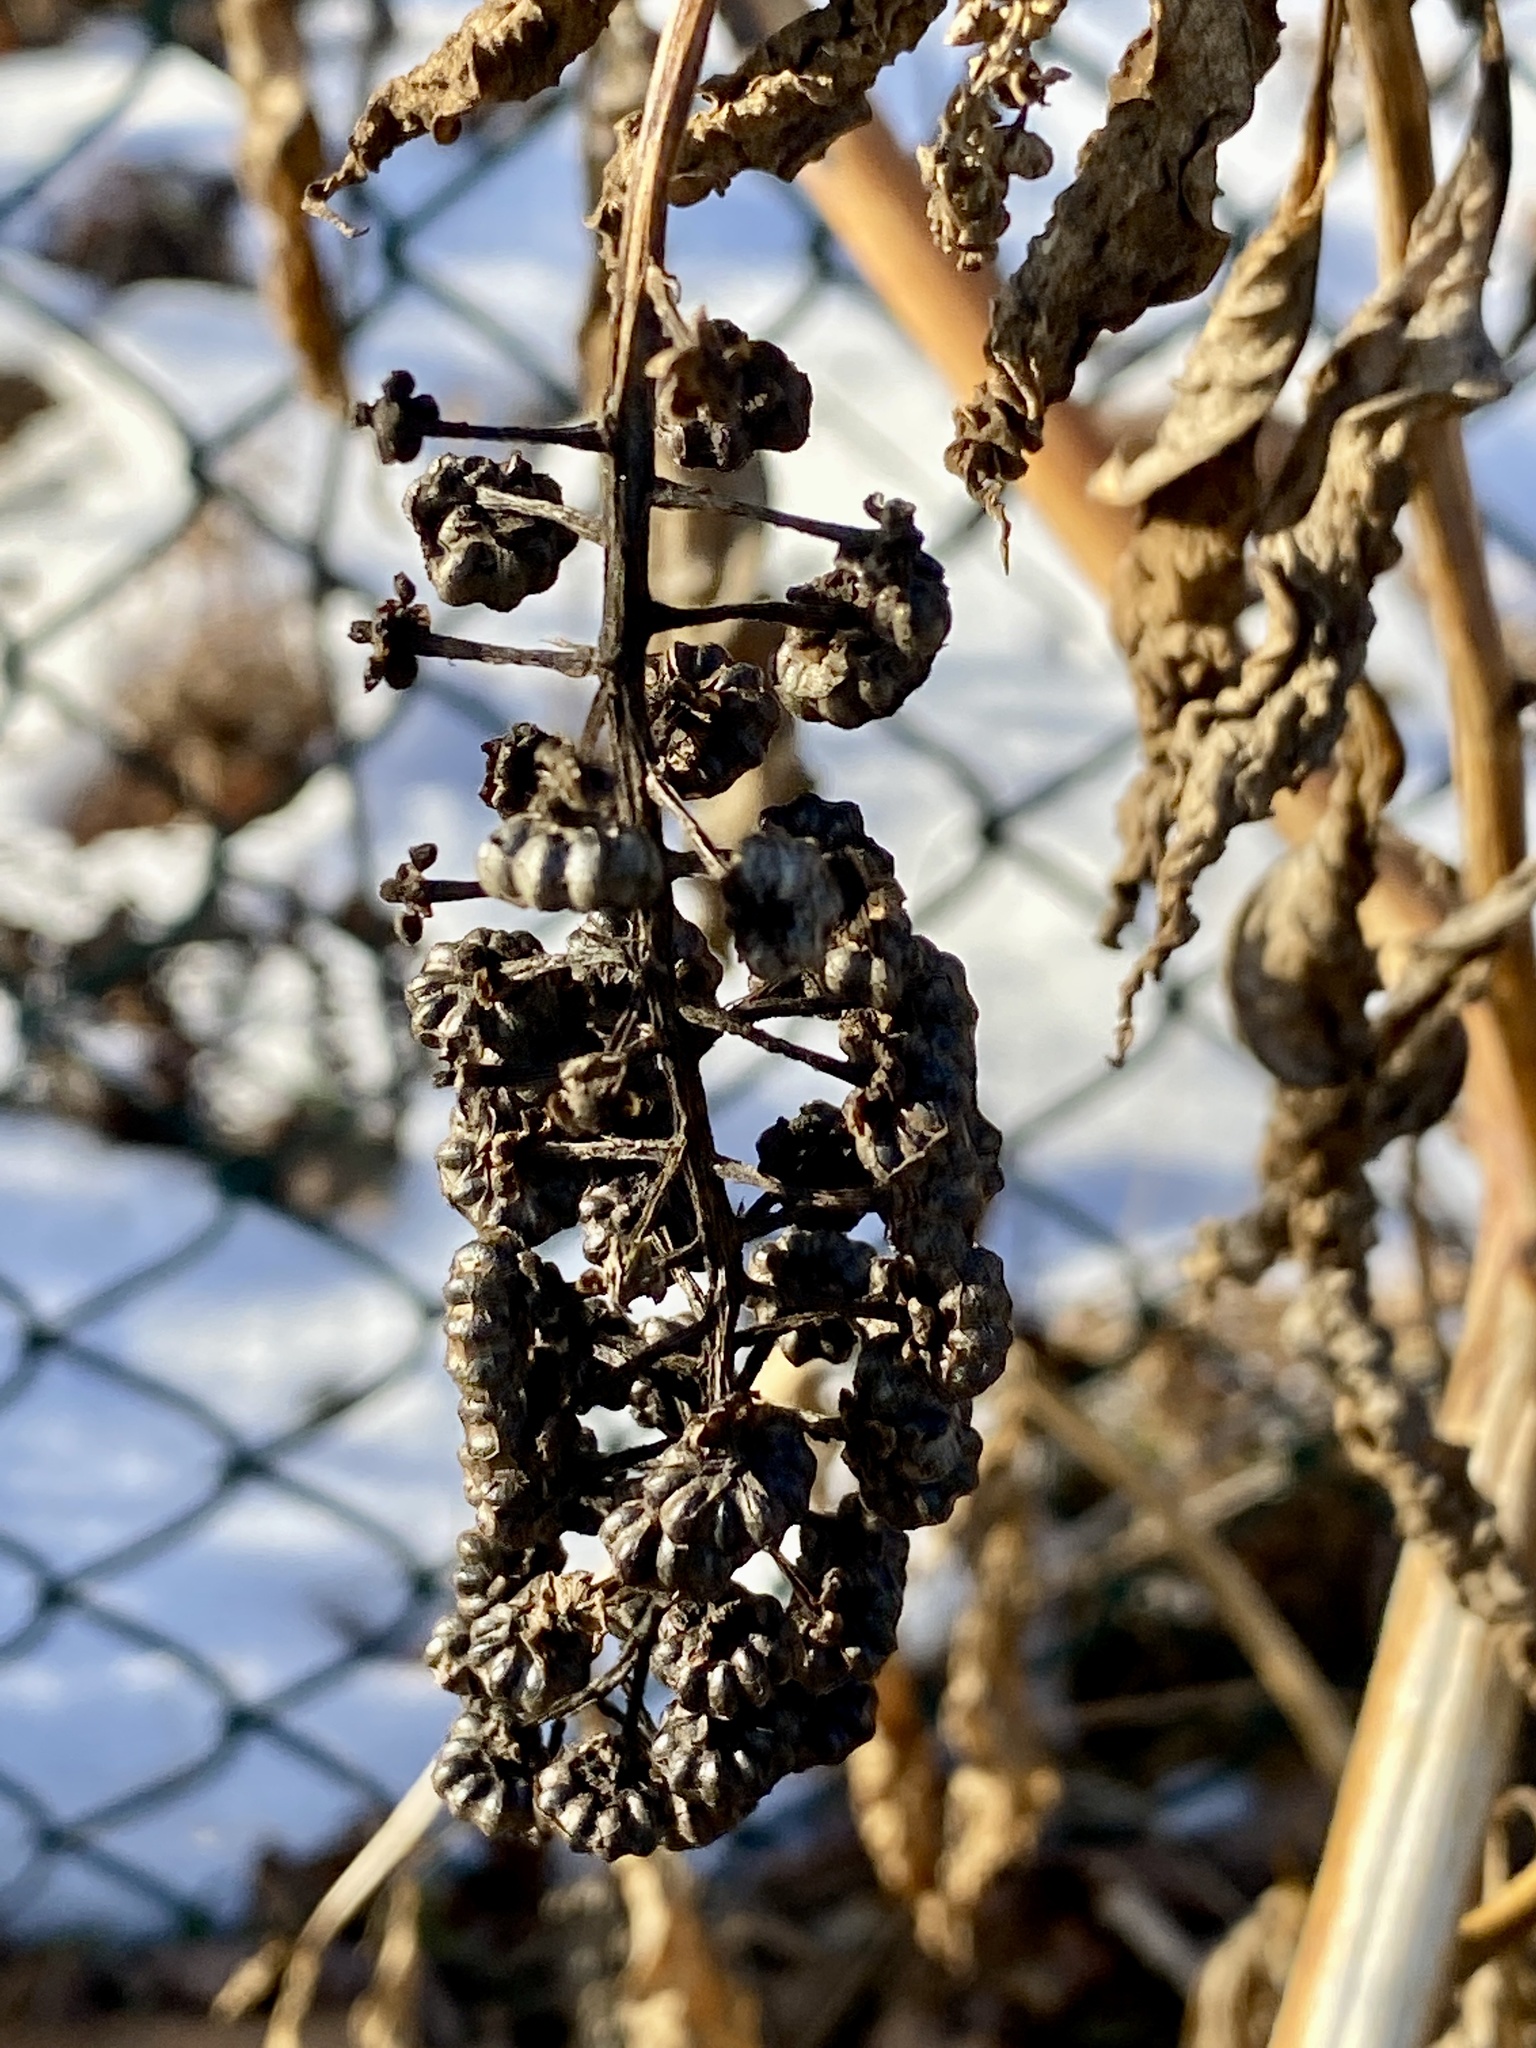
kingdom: Plantae
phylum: Tracheophyta
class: Magnoliopsida
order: Caryophyllales
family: Phytolaccaceae
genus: Phytolacca
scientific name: Phytolacca americana
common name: American pokeweed
